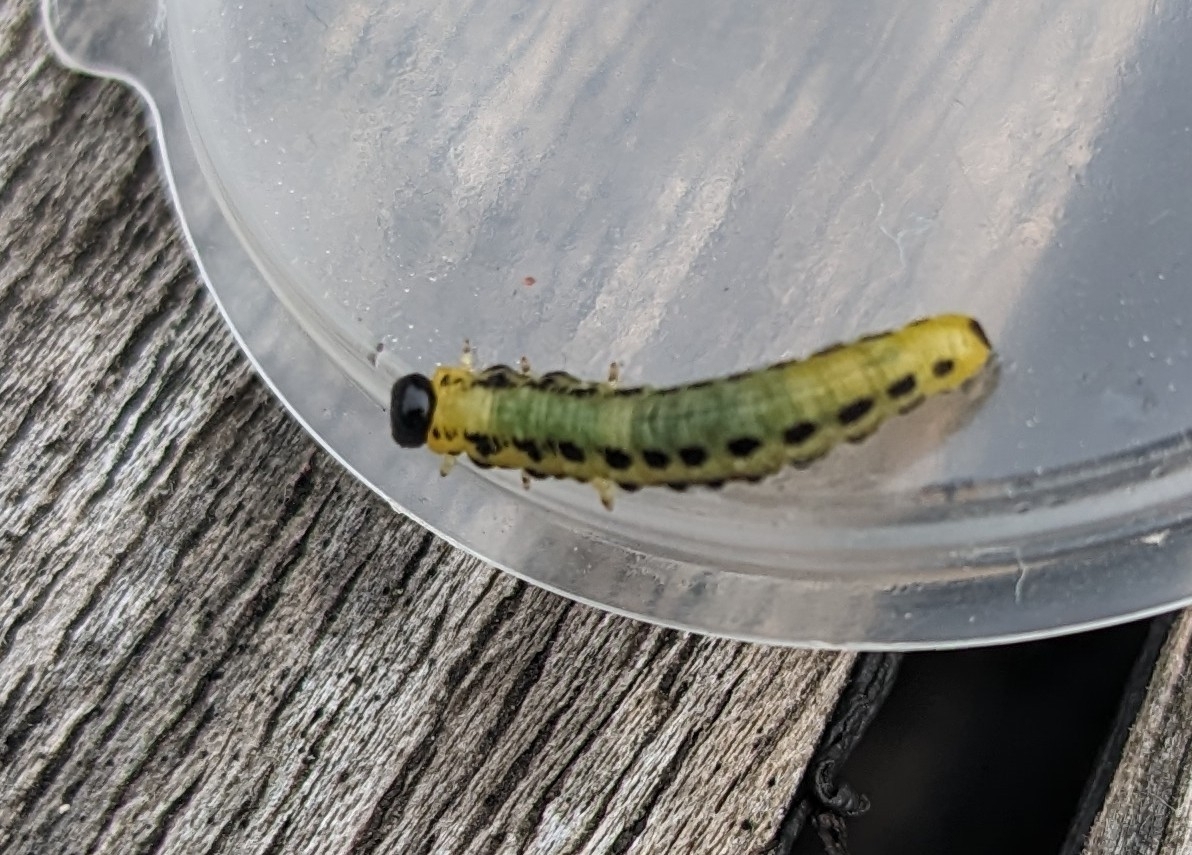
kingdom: Animalia
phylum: Arthropoda
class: Insecta
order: Hymenoptera
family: Tenthredinidae
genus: Craesus
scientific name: Craesus septentrionalis
